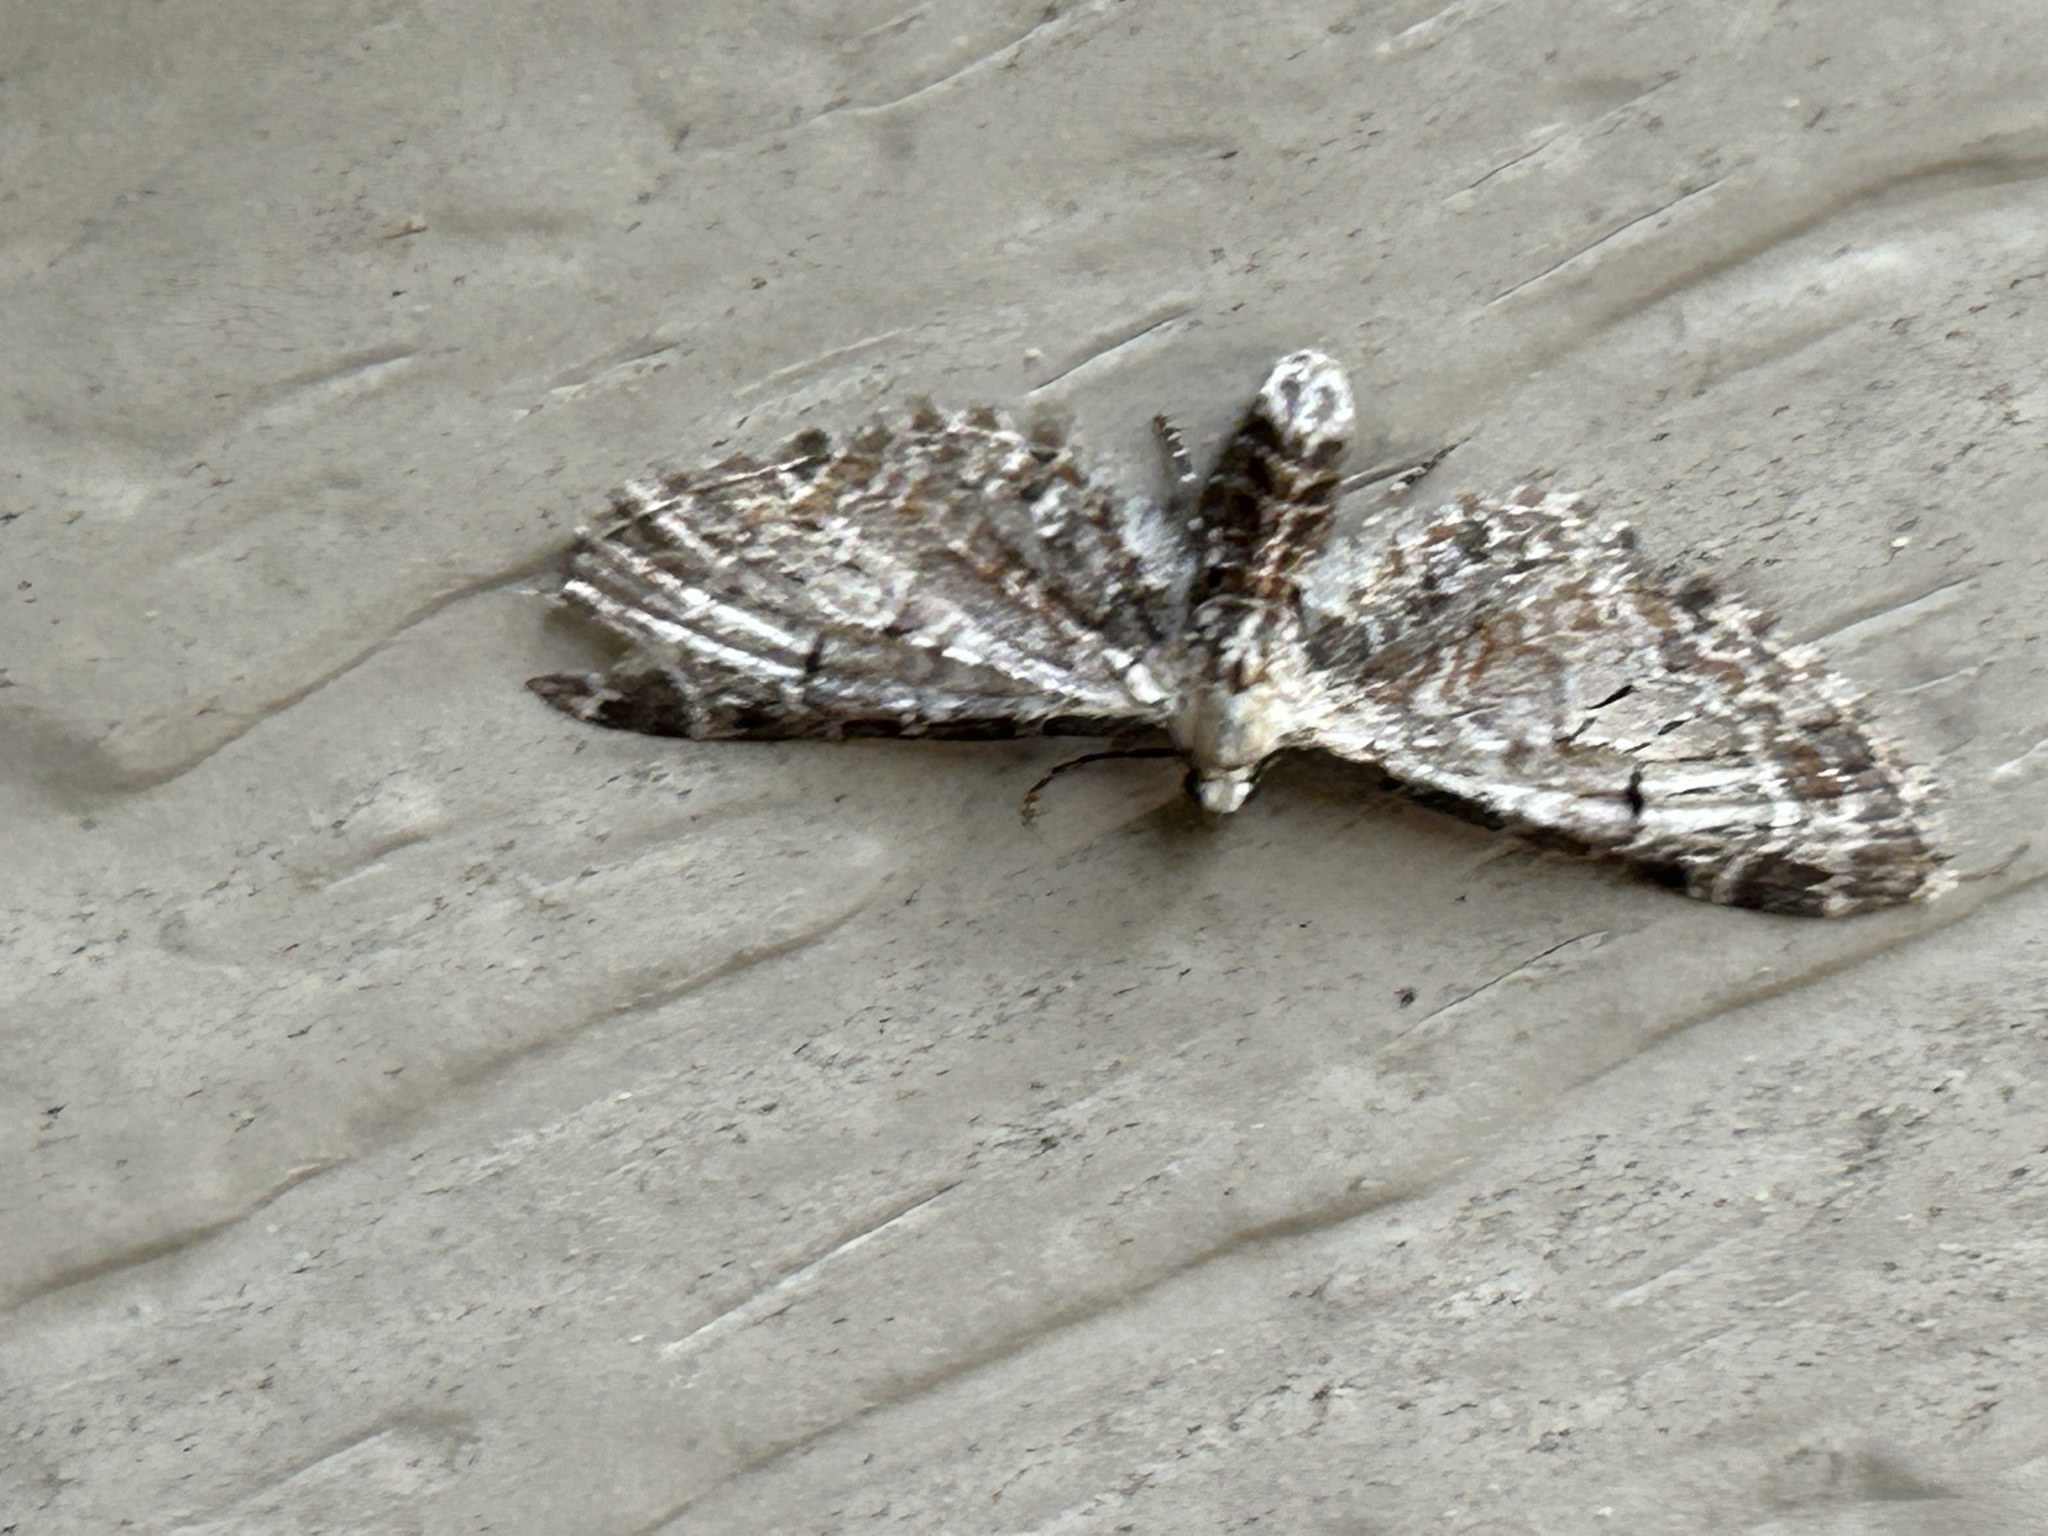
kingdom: Animalia
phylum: Arthropoda
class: Insecta
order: Lepidoptera
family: Geometridae
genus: Eupithecia
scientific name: Eupithecia ravocostaliata
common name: Great varigated pug
